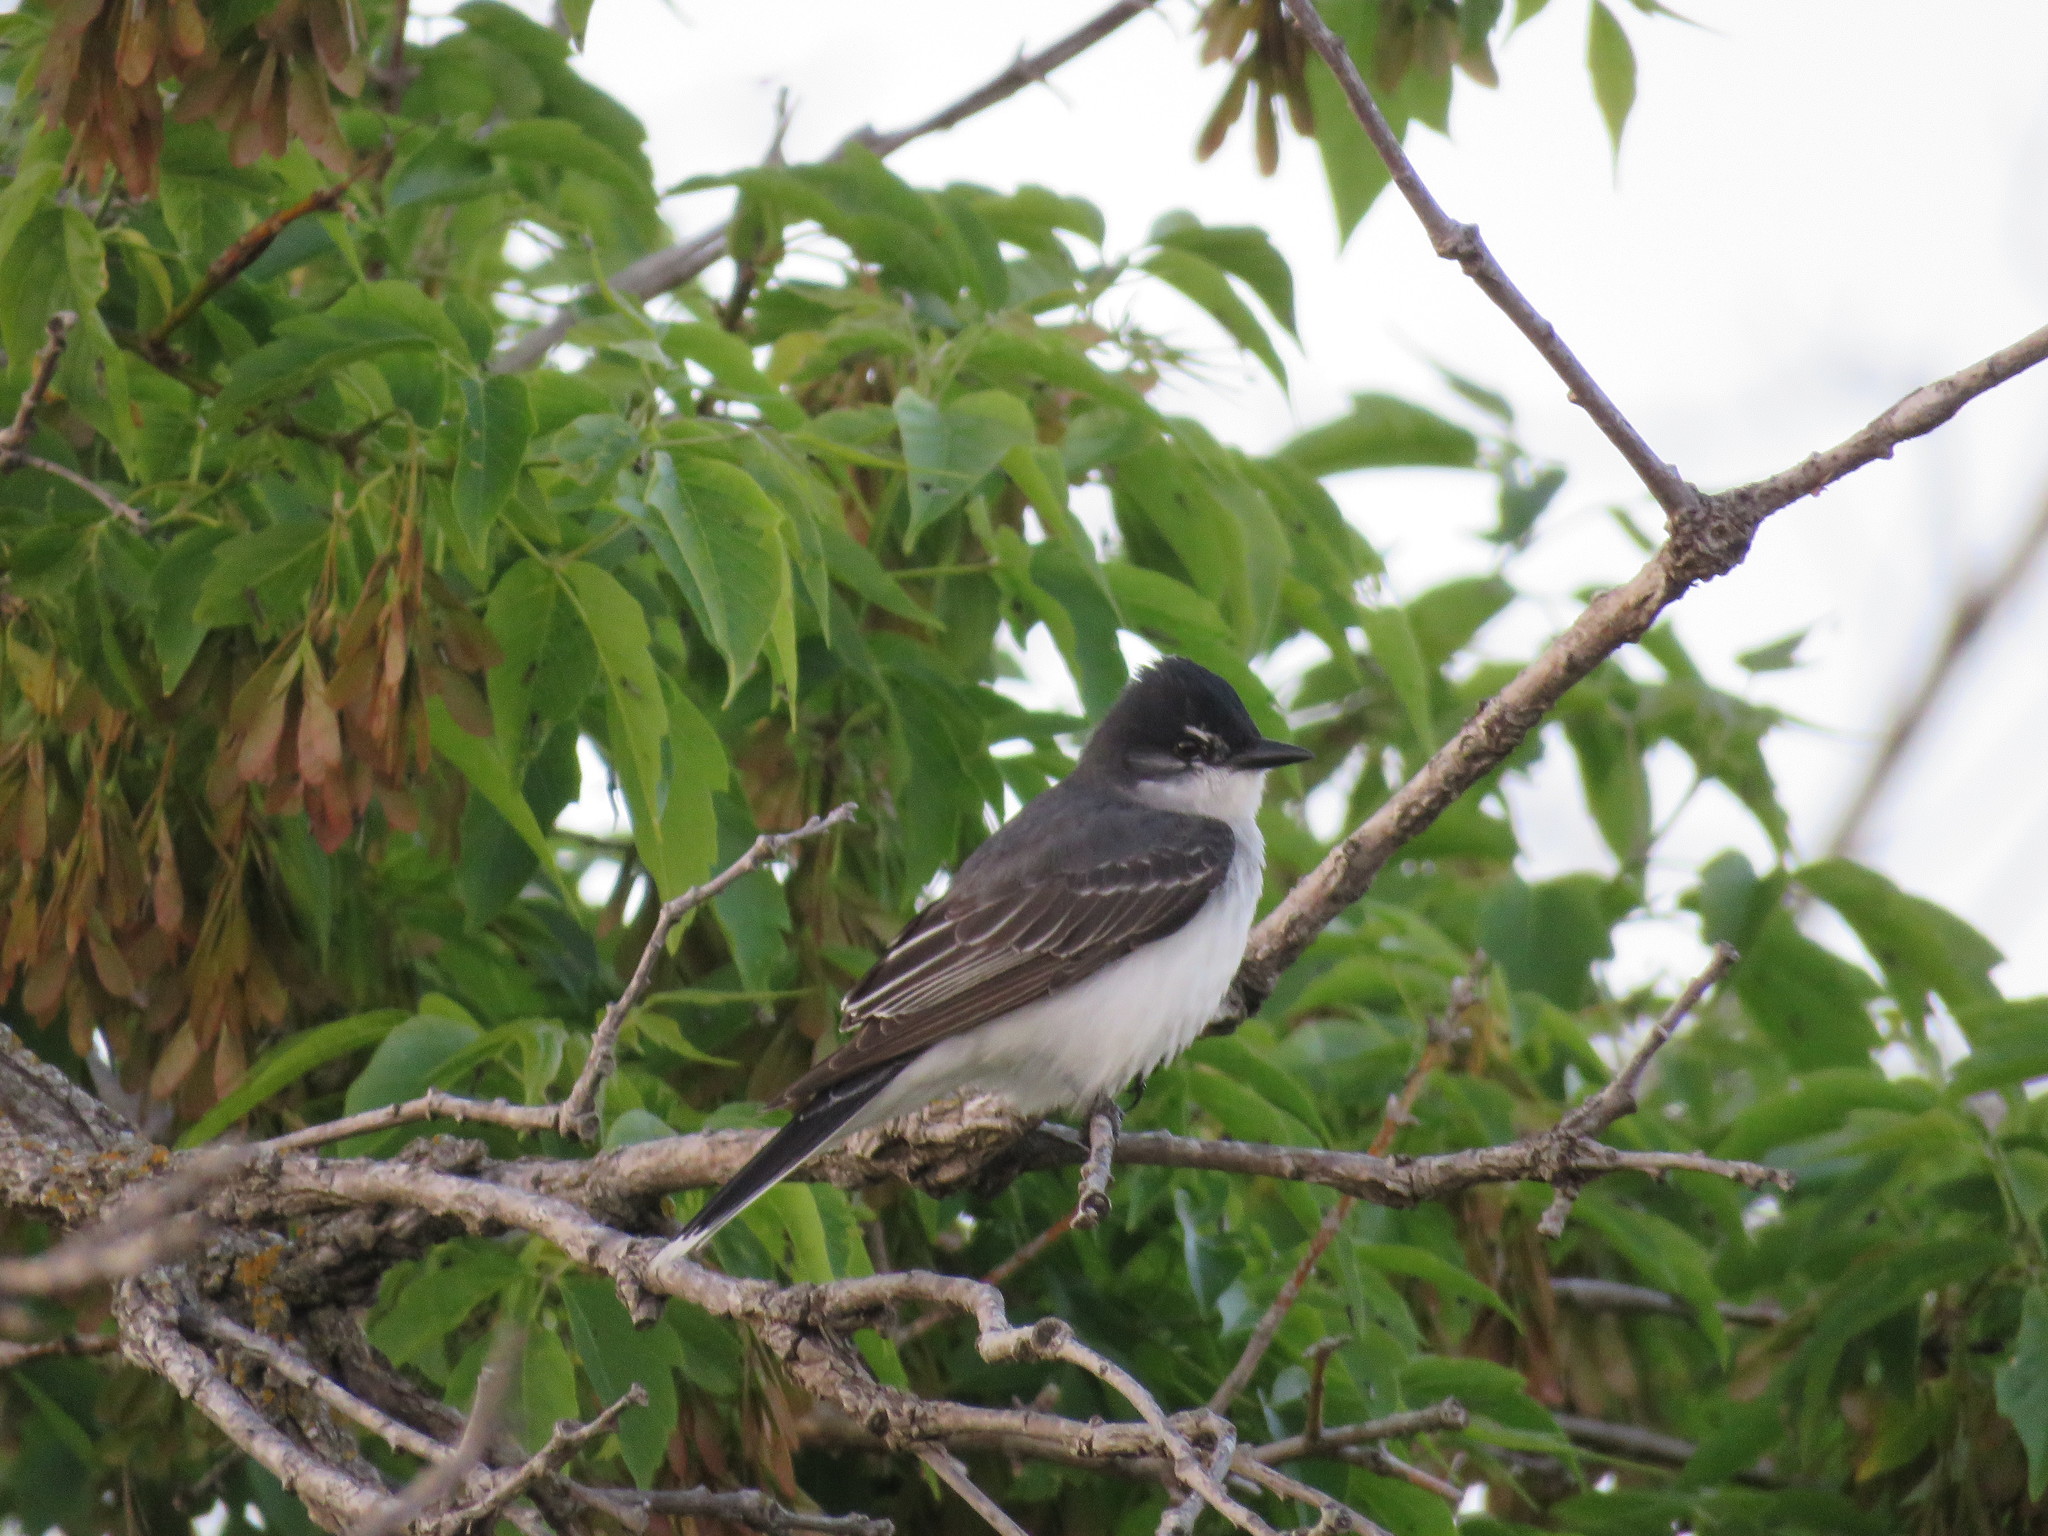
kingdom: Animalia
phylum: Chordata
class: Aves
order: Passeriformes
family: Tyrannidae
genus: Tyrannus
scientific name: Tyrannus tyrannus
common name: Eastern kingbird
